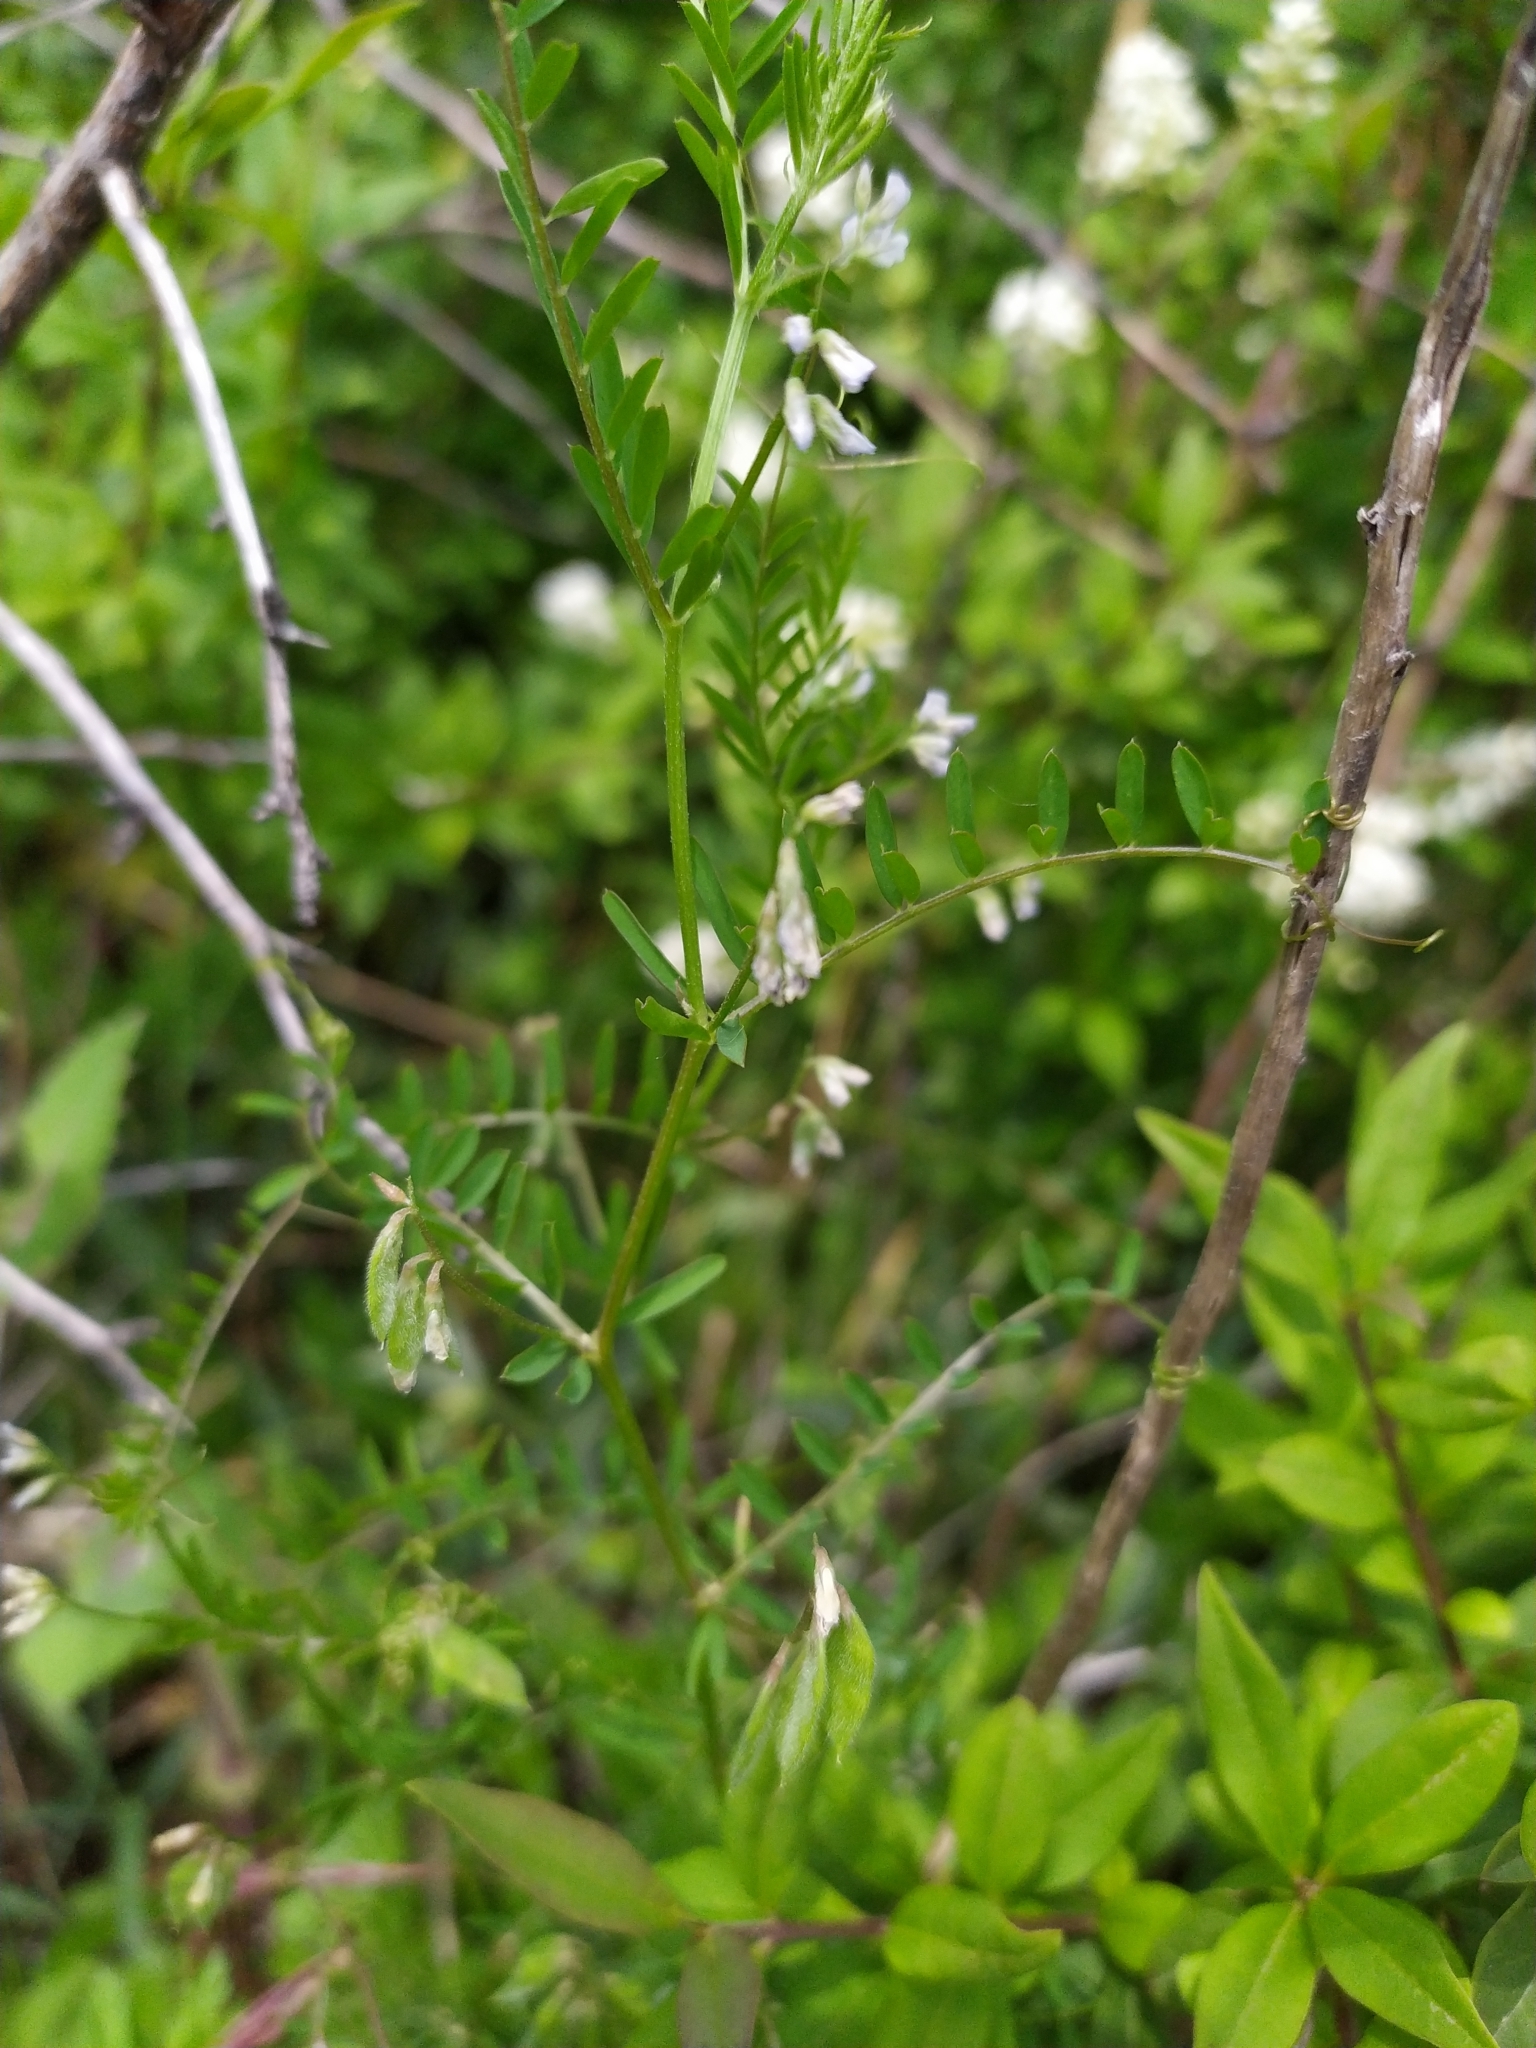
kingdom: Plantae
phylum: Tracheophyta
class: Magnoliopsida
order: Fabales
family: Fabaceae
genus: Vicia
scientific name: Vicia hirsuta
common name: Tiny vetch
